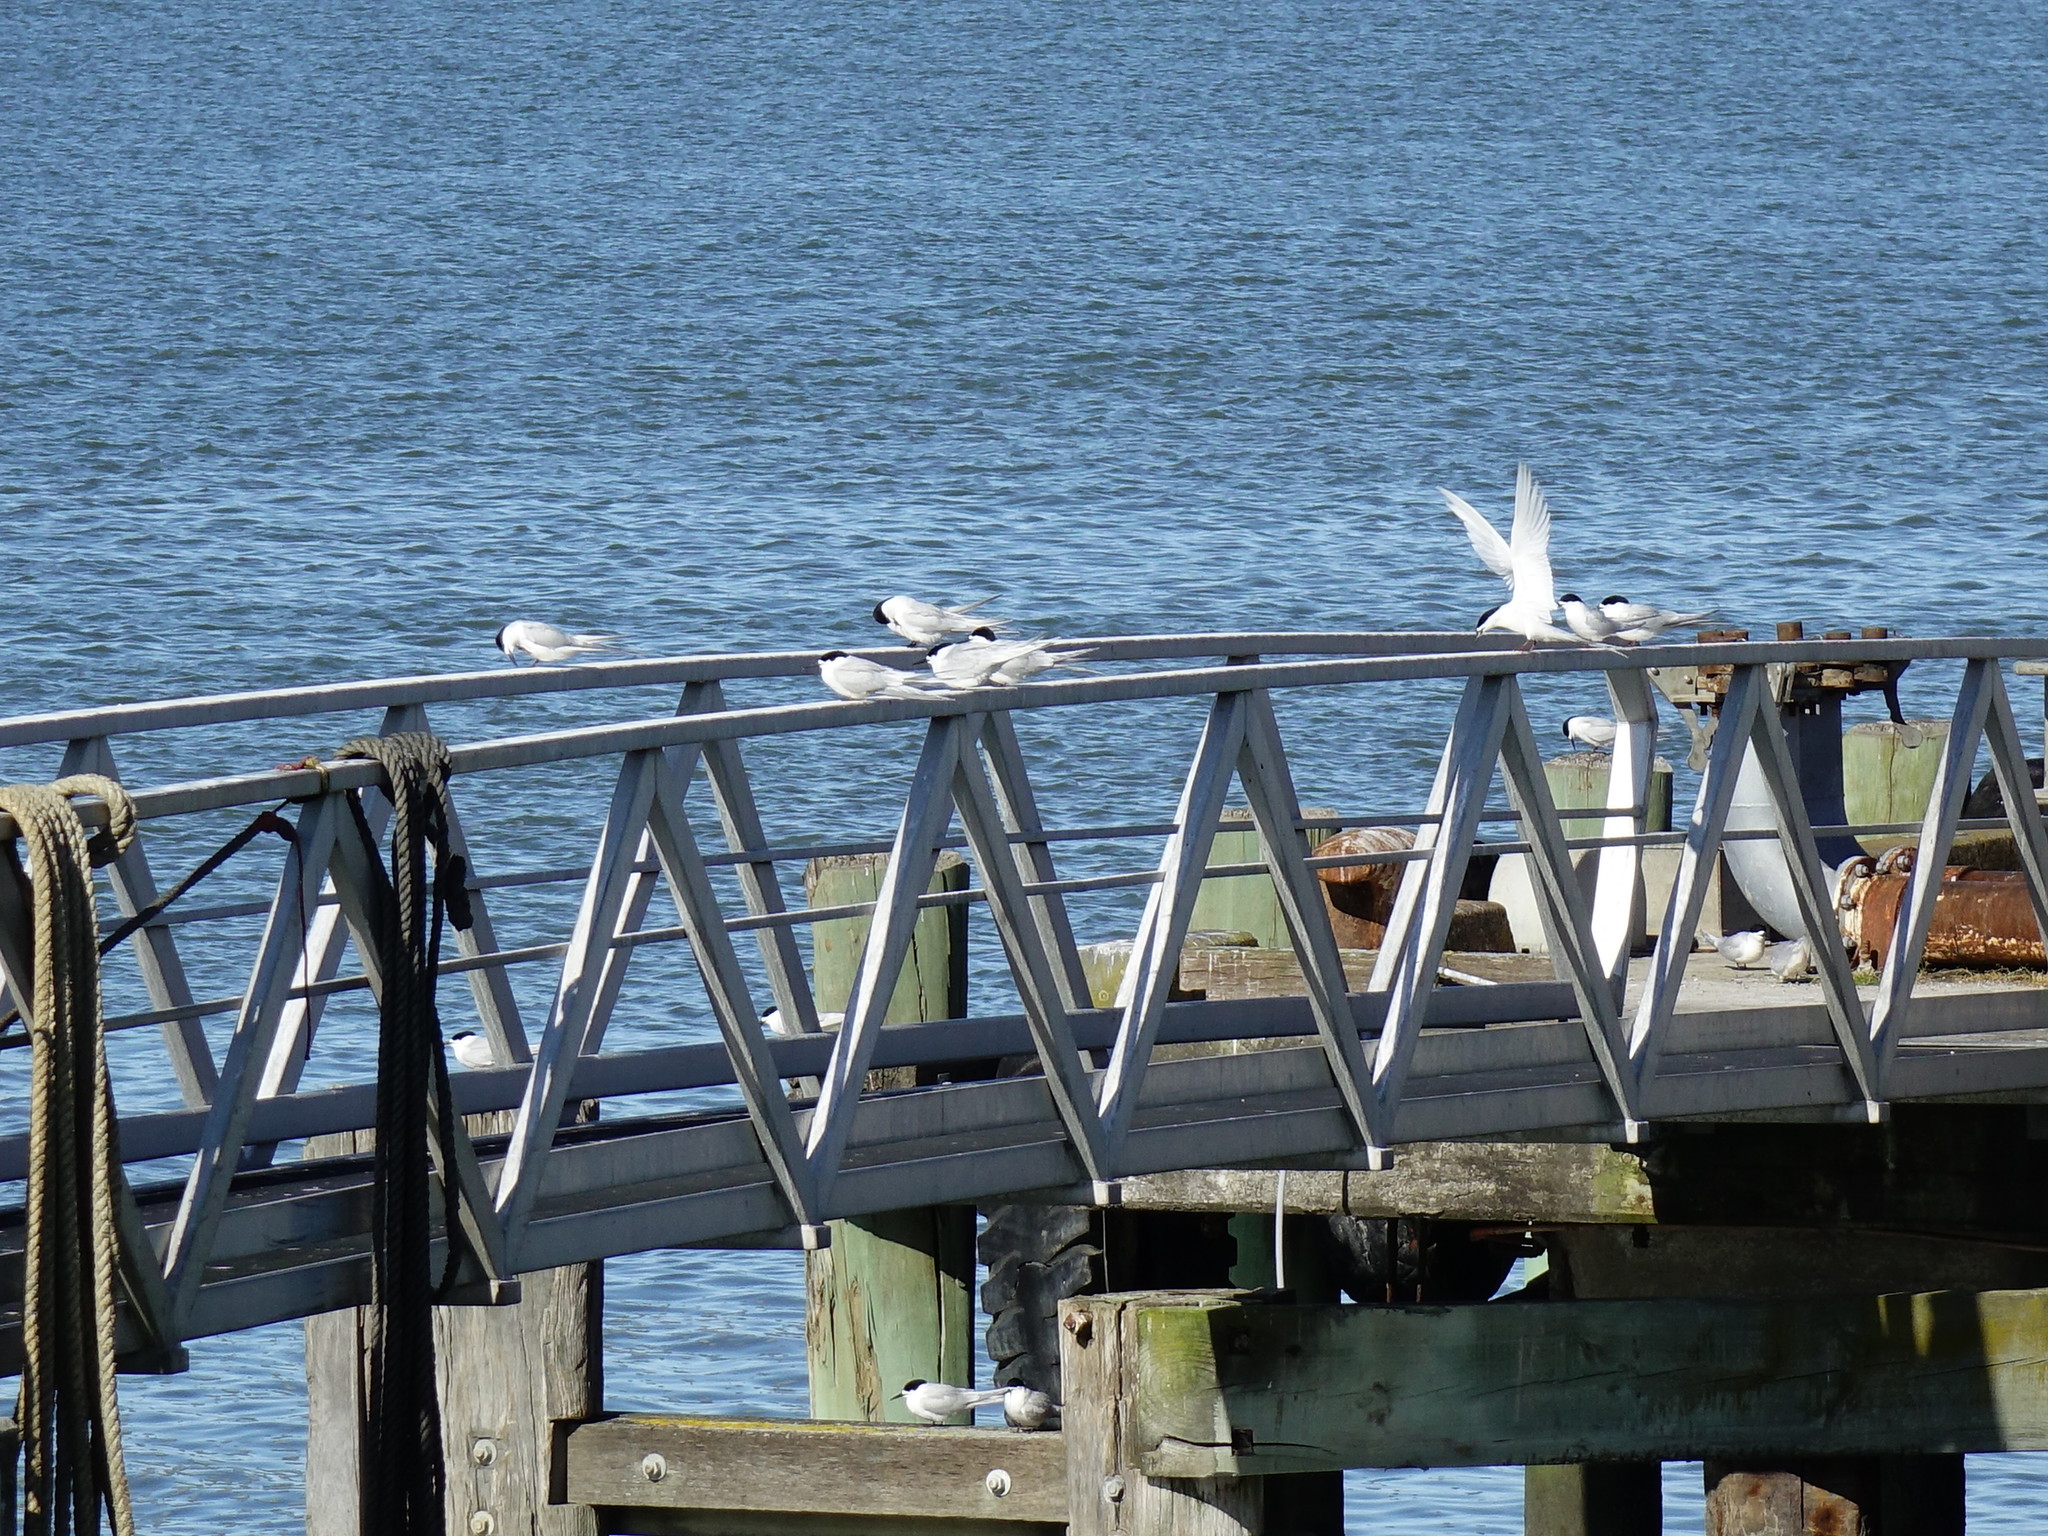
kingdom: Animalia
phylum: Chordata
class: Aves
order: Charadriiformes
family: Laridae
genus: Sterna
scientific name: Sterna striata
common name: White-fronted tern
